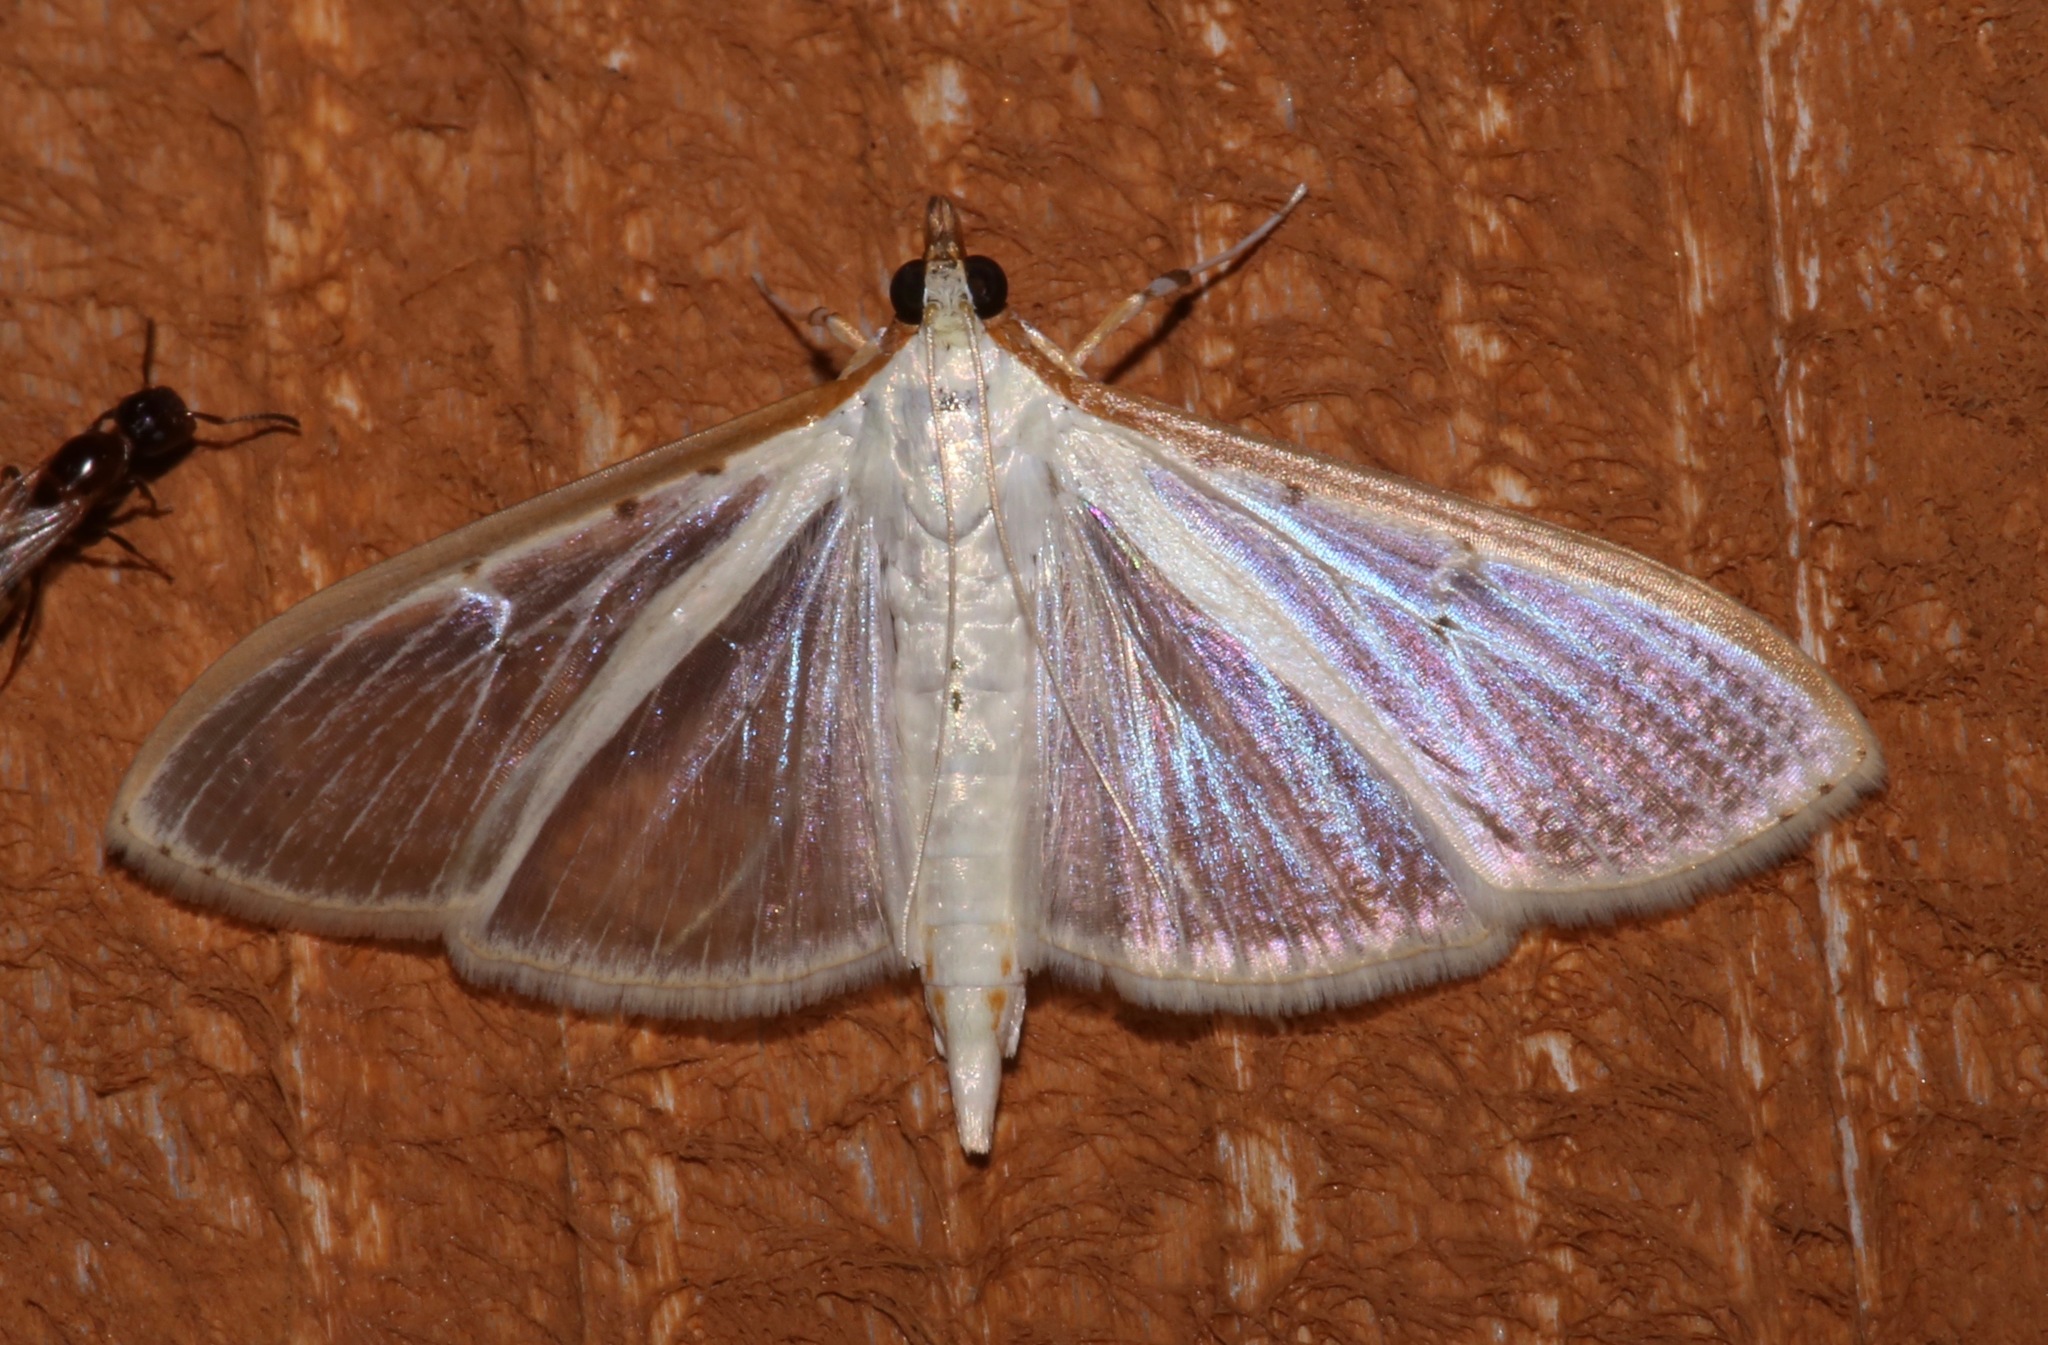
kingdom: Animalia
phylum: Arthropoda
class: Insecta
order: Lepidoptera
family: Crambidae
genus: Palpita
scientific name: Palpita quadristigmalis
